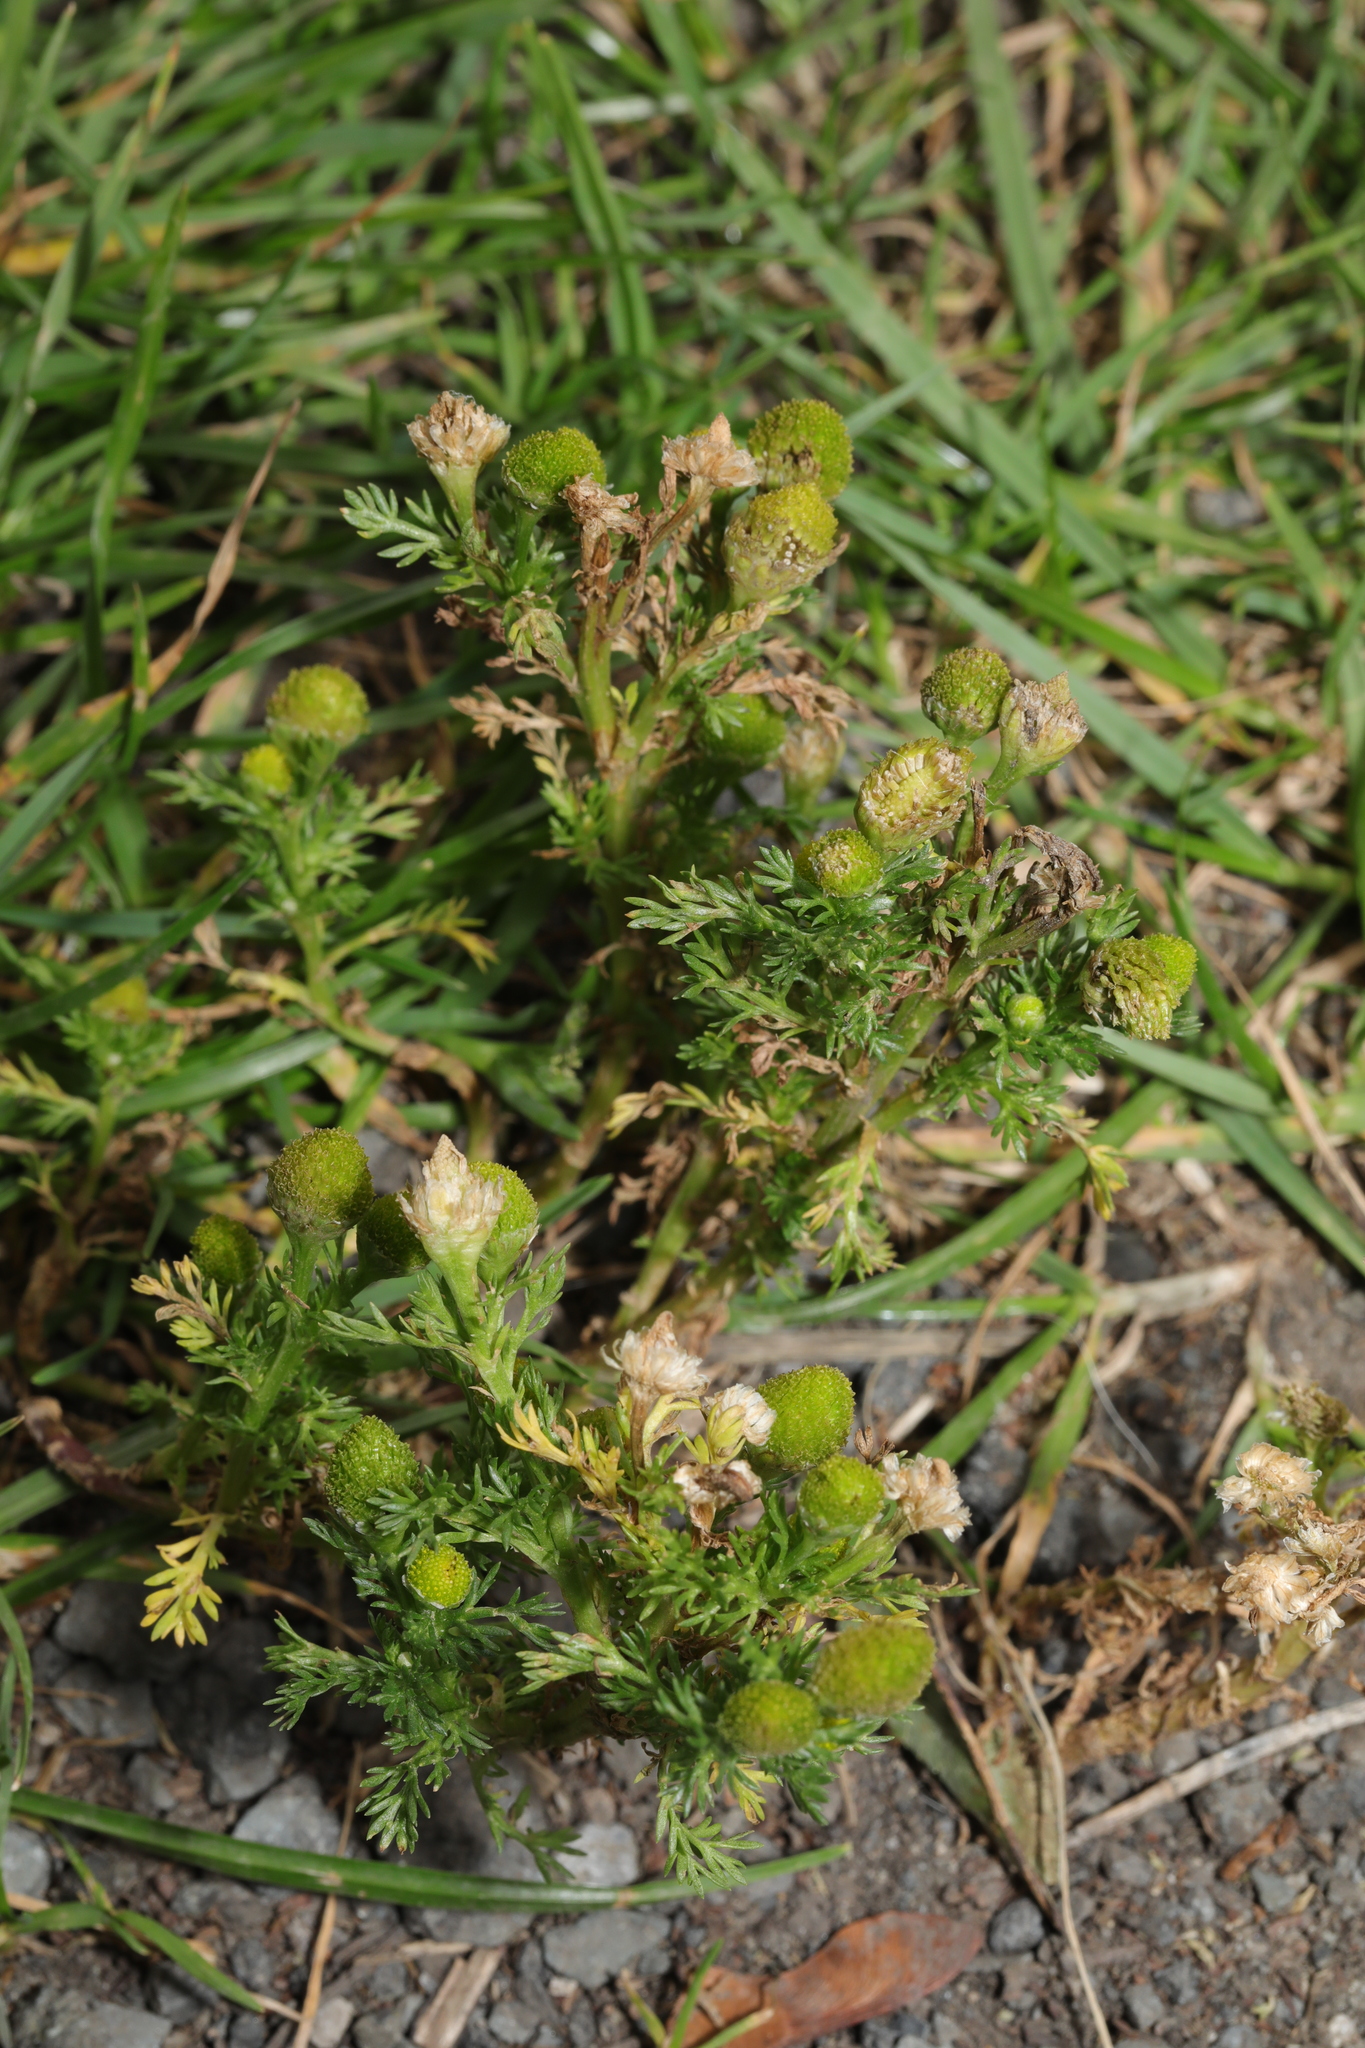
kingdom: Plantae
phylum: Tracheophyta
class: Magnoliopsida
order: Asterales
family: Asteraceae
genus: Matricaria
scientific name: Matricaria discoidea
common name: Disc mayweed
